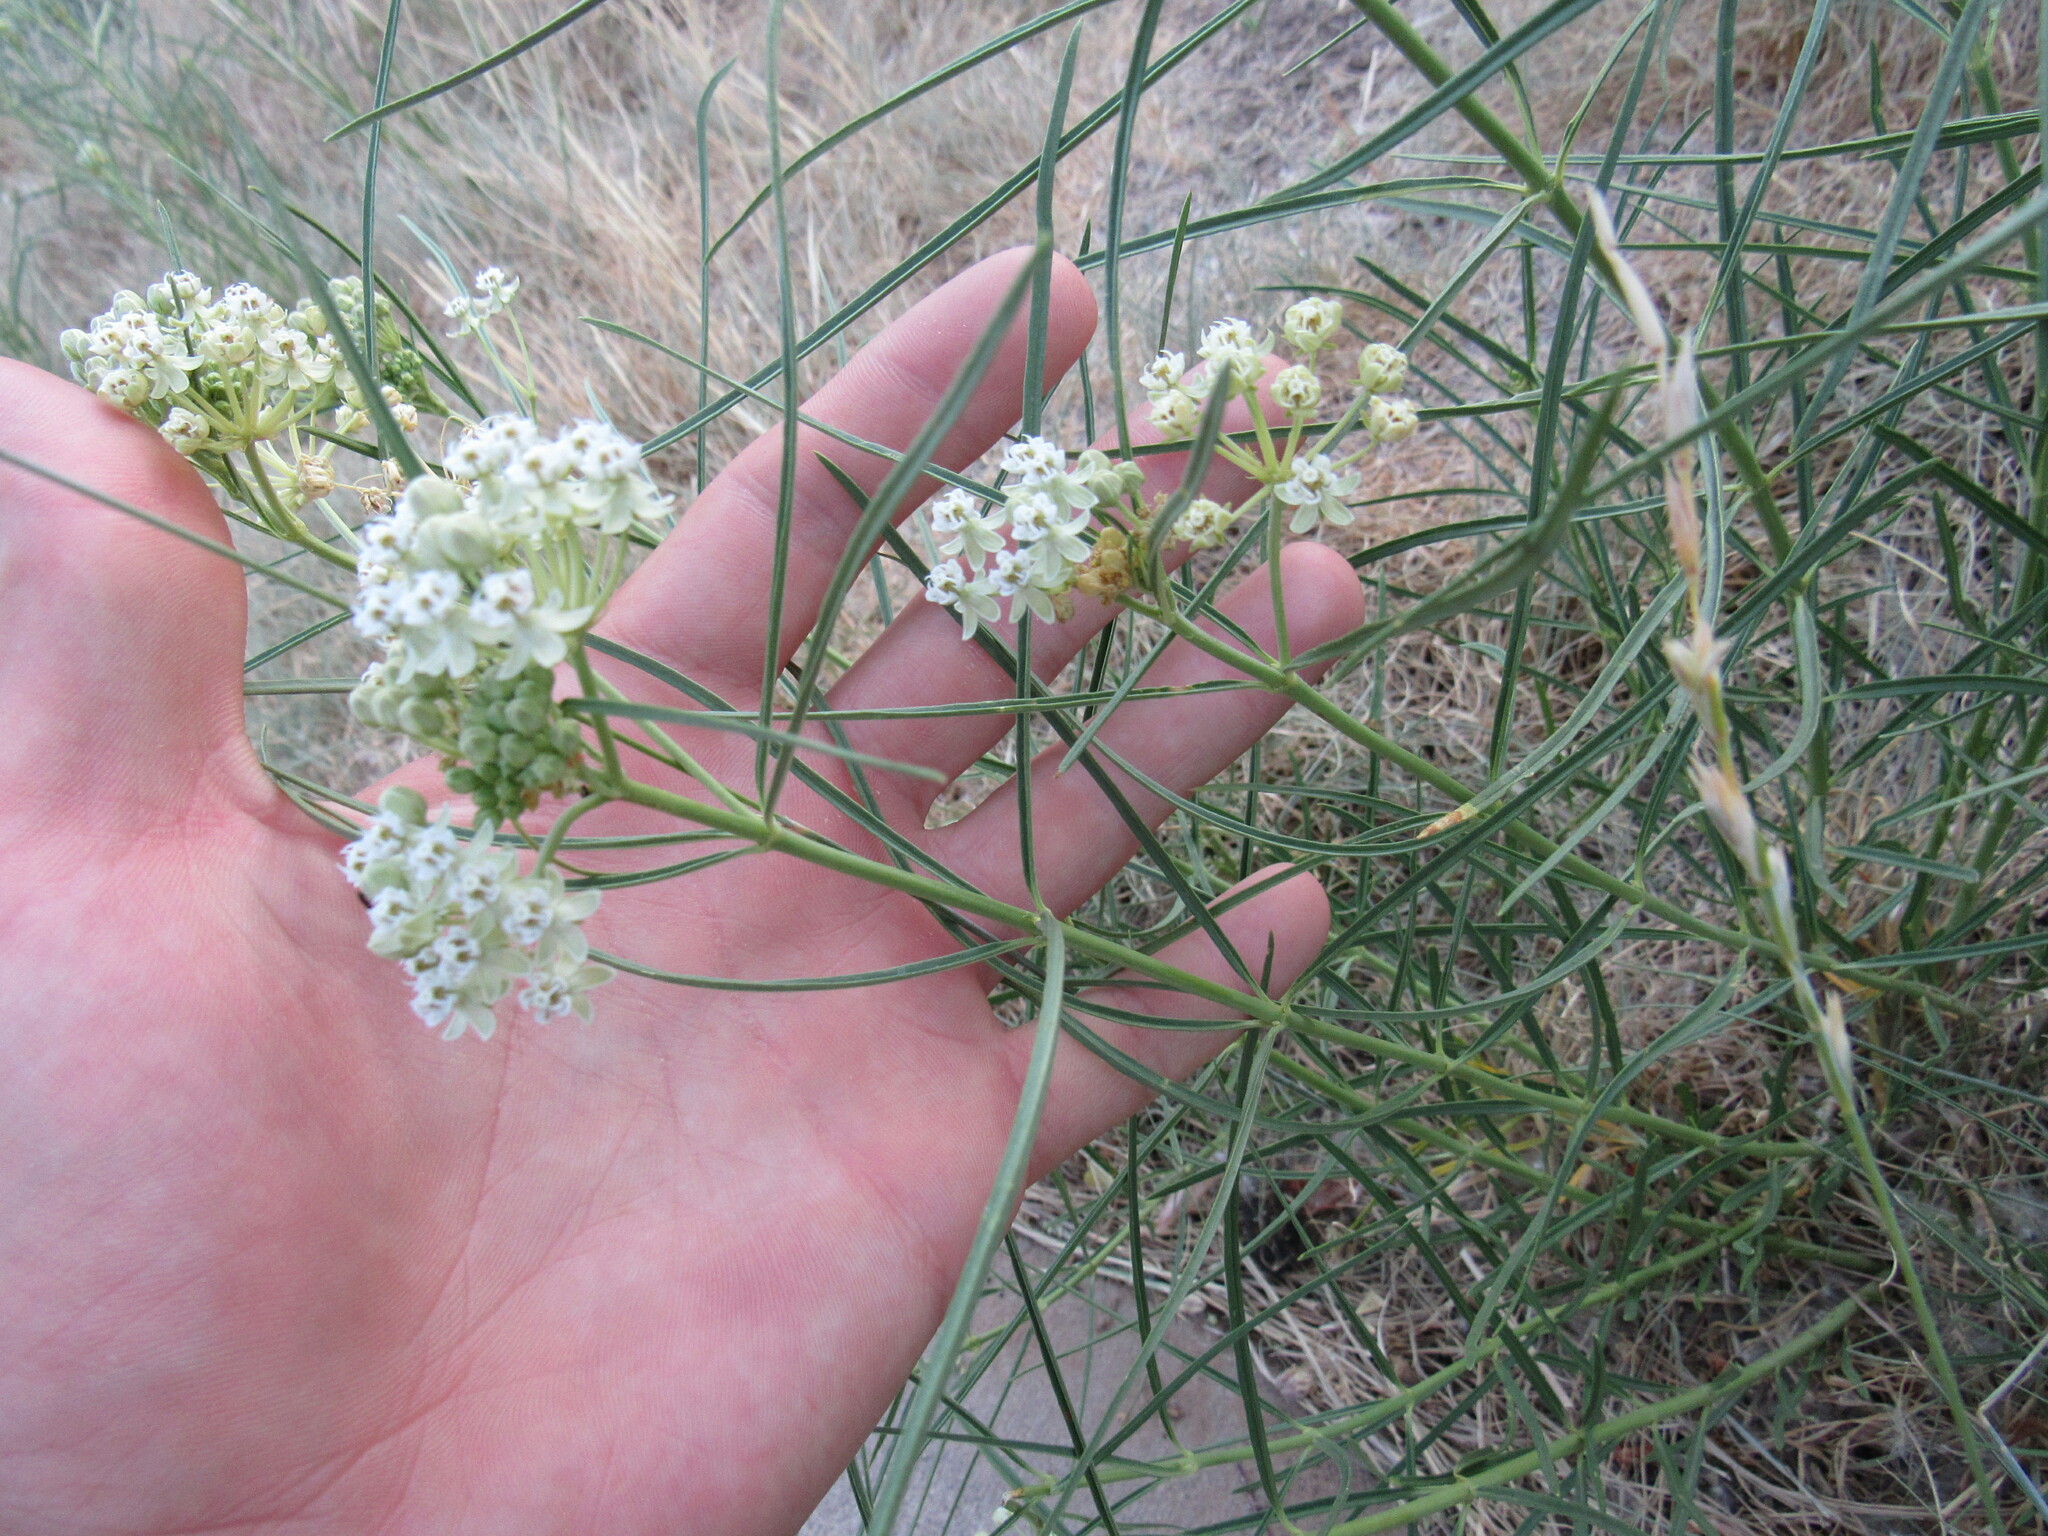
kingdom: Plantae
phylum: Tracheophyta
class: Magnoliopsida
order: Gentianales
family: Apocynaceae
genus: Asclepias
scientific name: Asclepias subverticillata
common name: Horsetail milkweed
